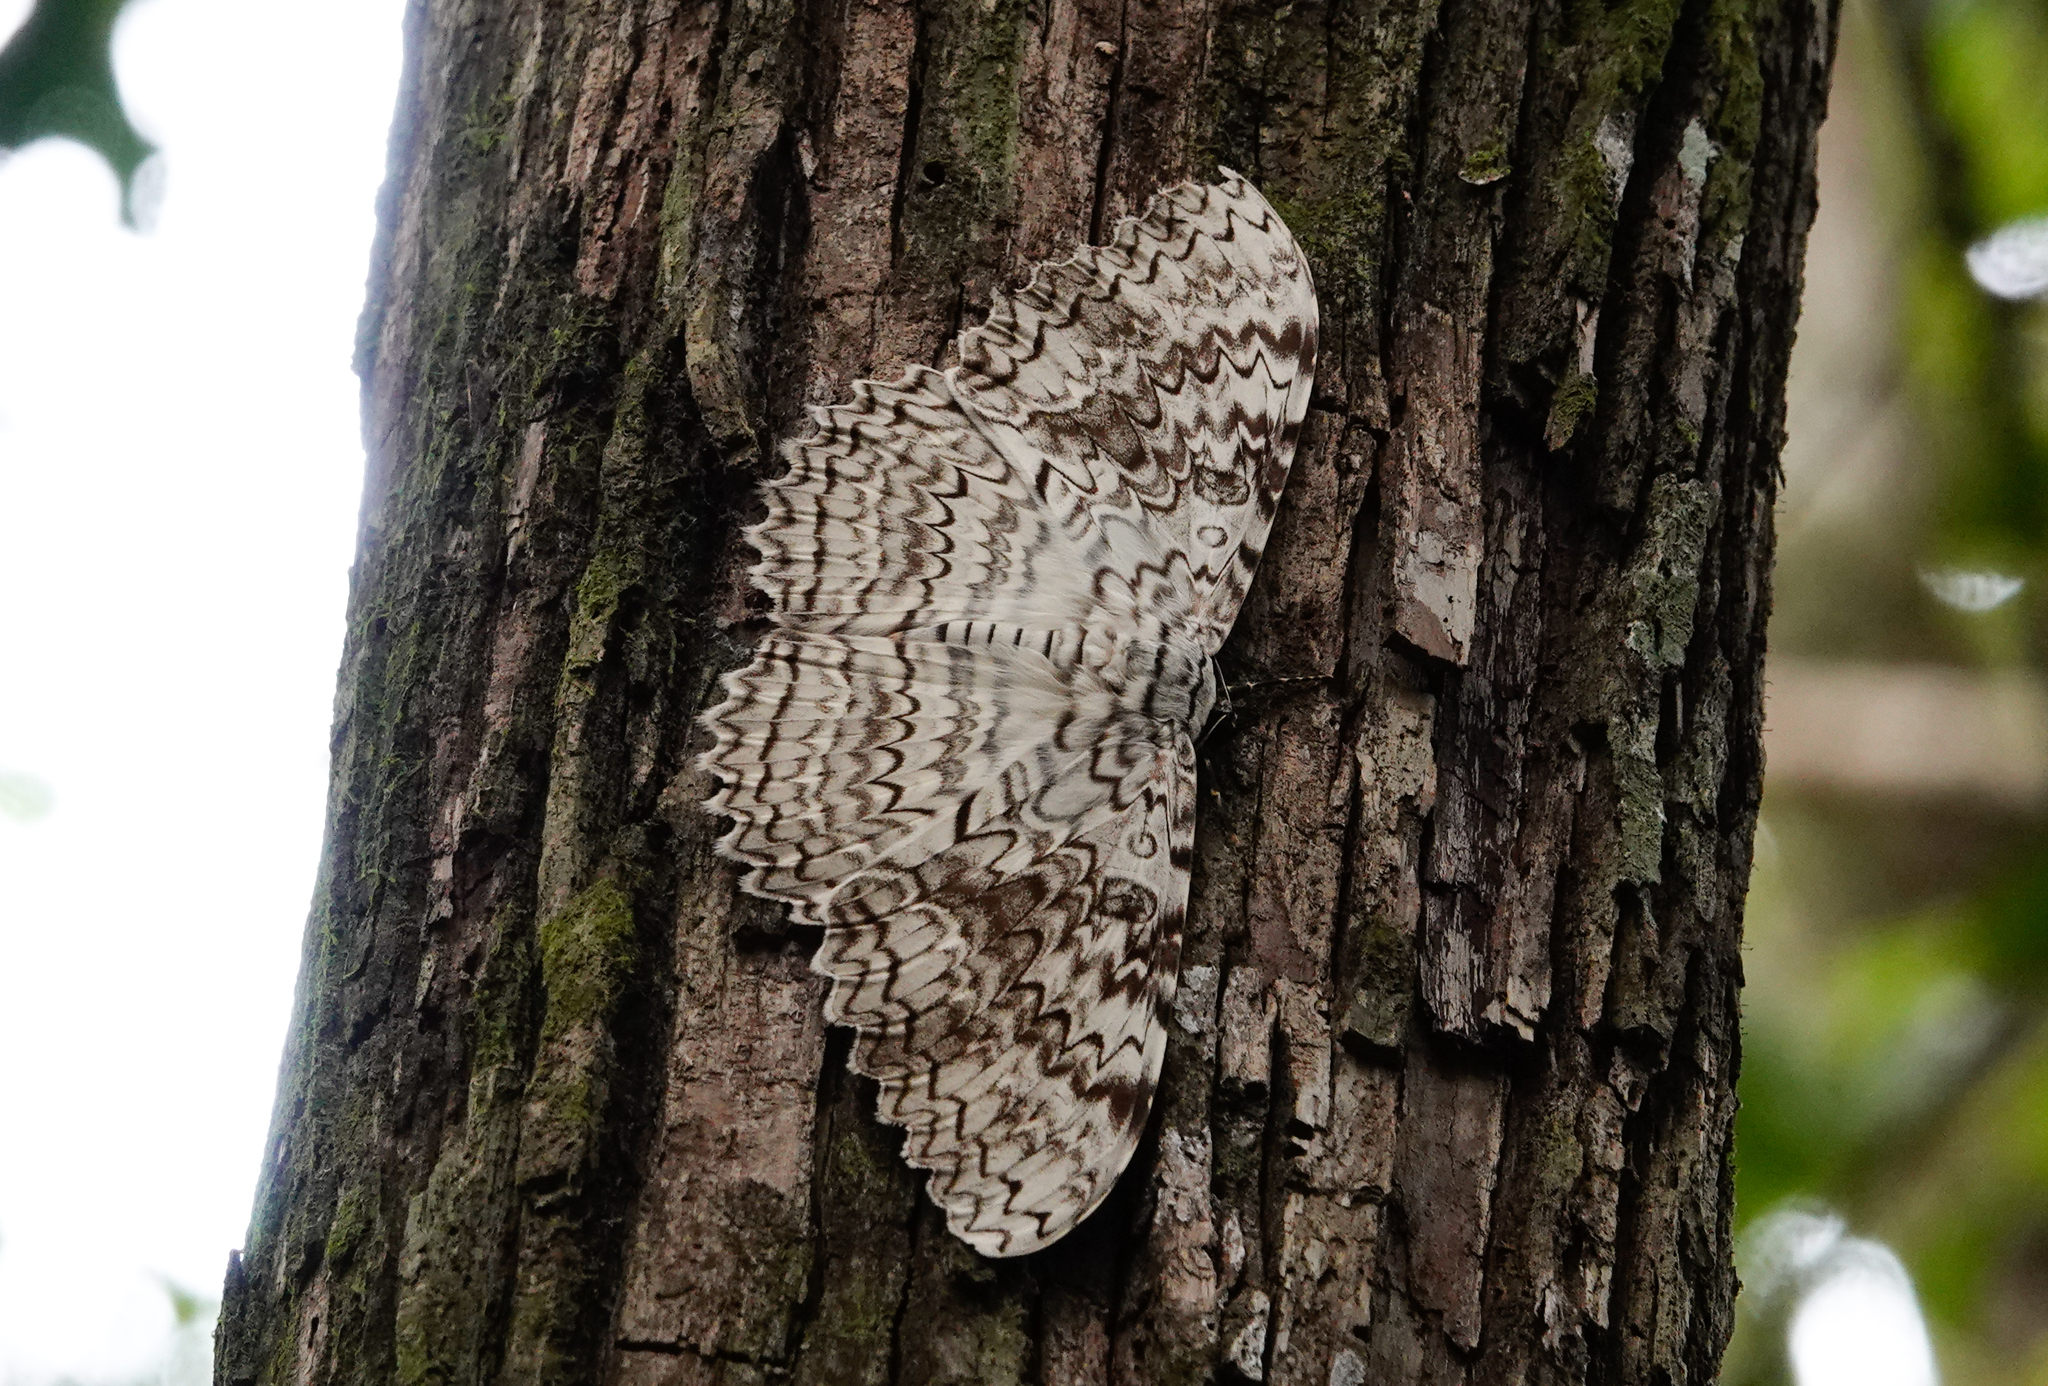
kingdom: Animalia
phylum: Arthropoda
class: Insecta
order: Lepidoptera
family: Erebidae
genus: Thysania
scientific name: Thysania agrippina
